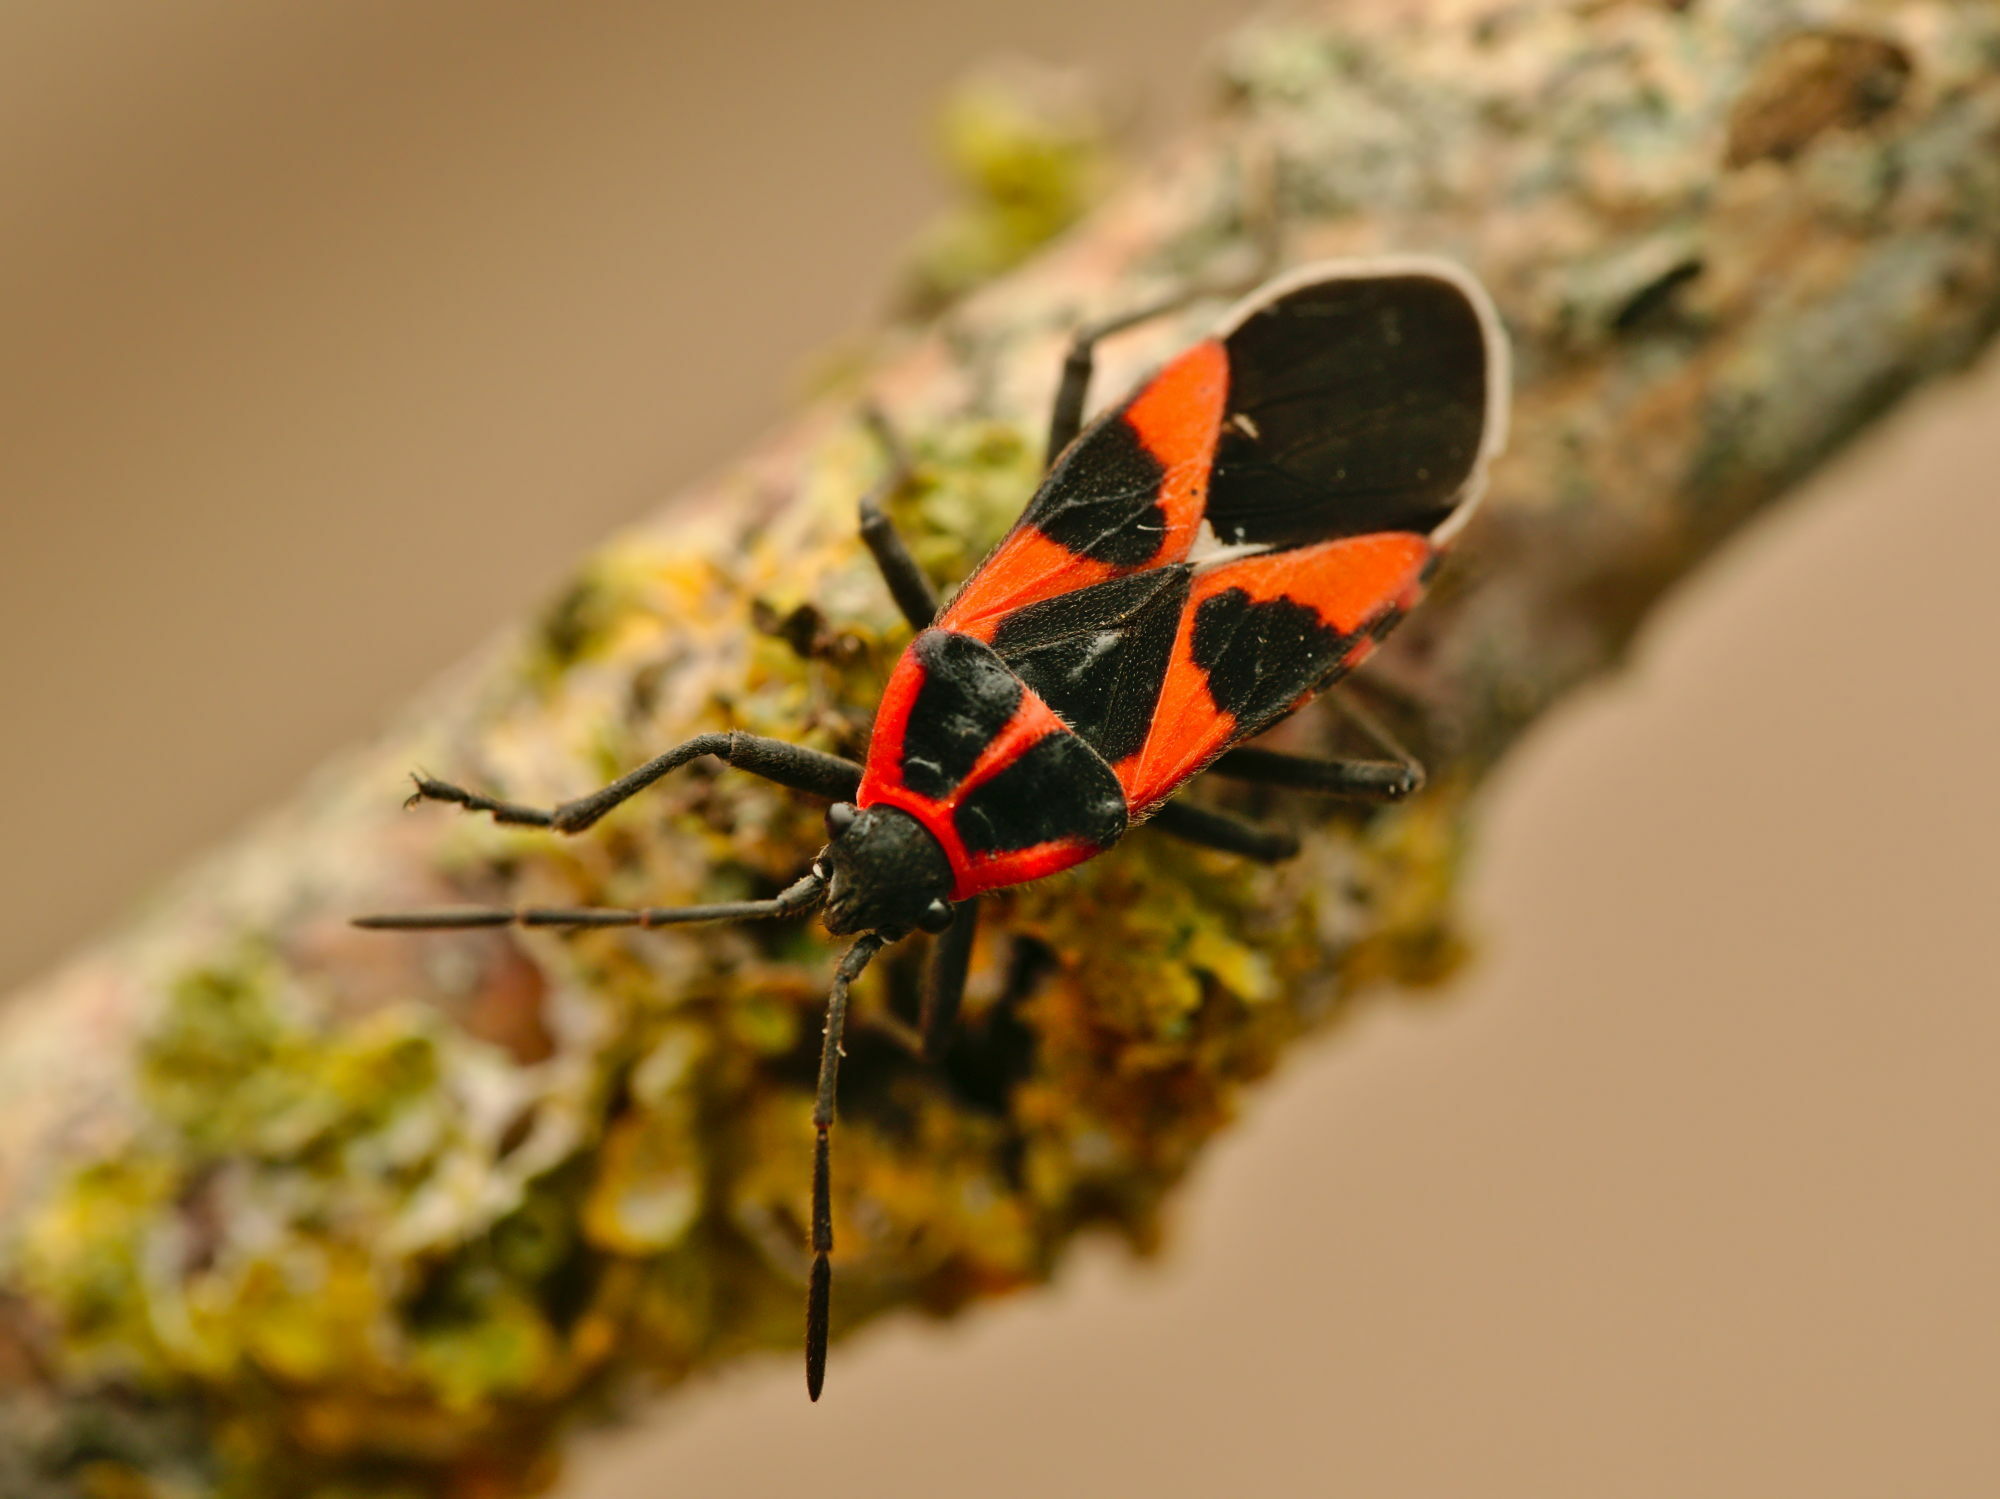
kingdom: Animalia
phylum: Arthropoda
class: Insecta
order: Hemiptera
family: Lygaeidae
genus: Tropidothorax
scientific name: Tropidothorax leucopterus
